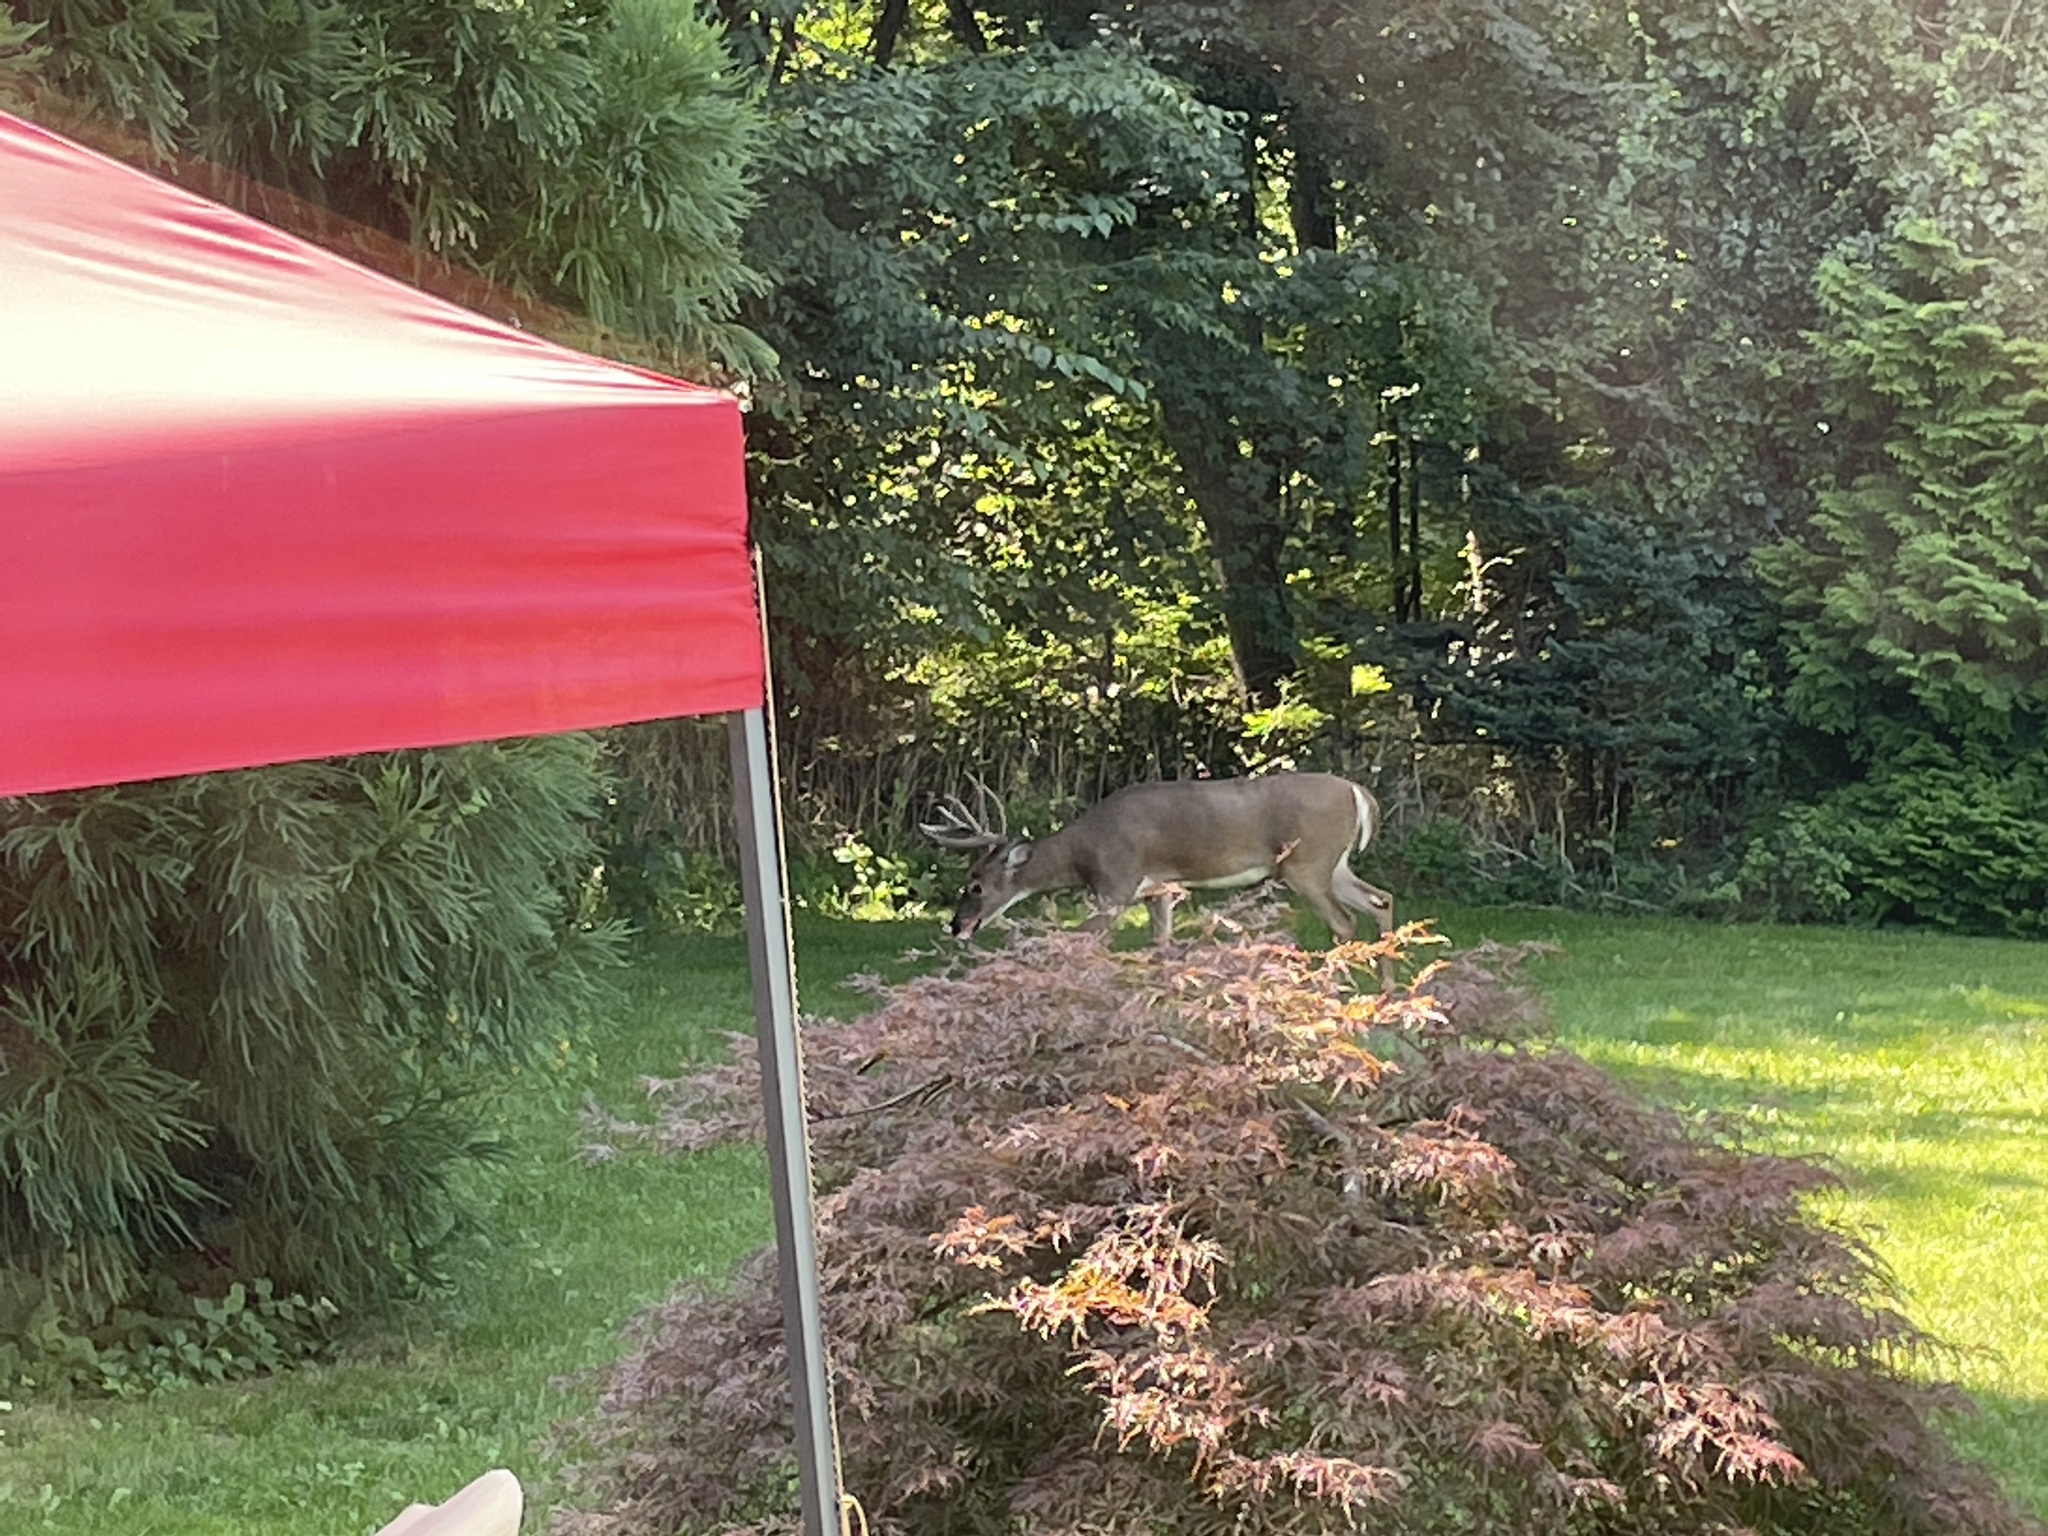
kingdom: Animalia
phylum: Chordata
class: Mammalia
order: Artiodactyla
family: Cervidae
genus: Odocoileus
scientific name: Odocoileus virginianus
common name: White-tailed deer
